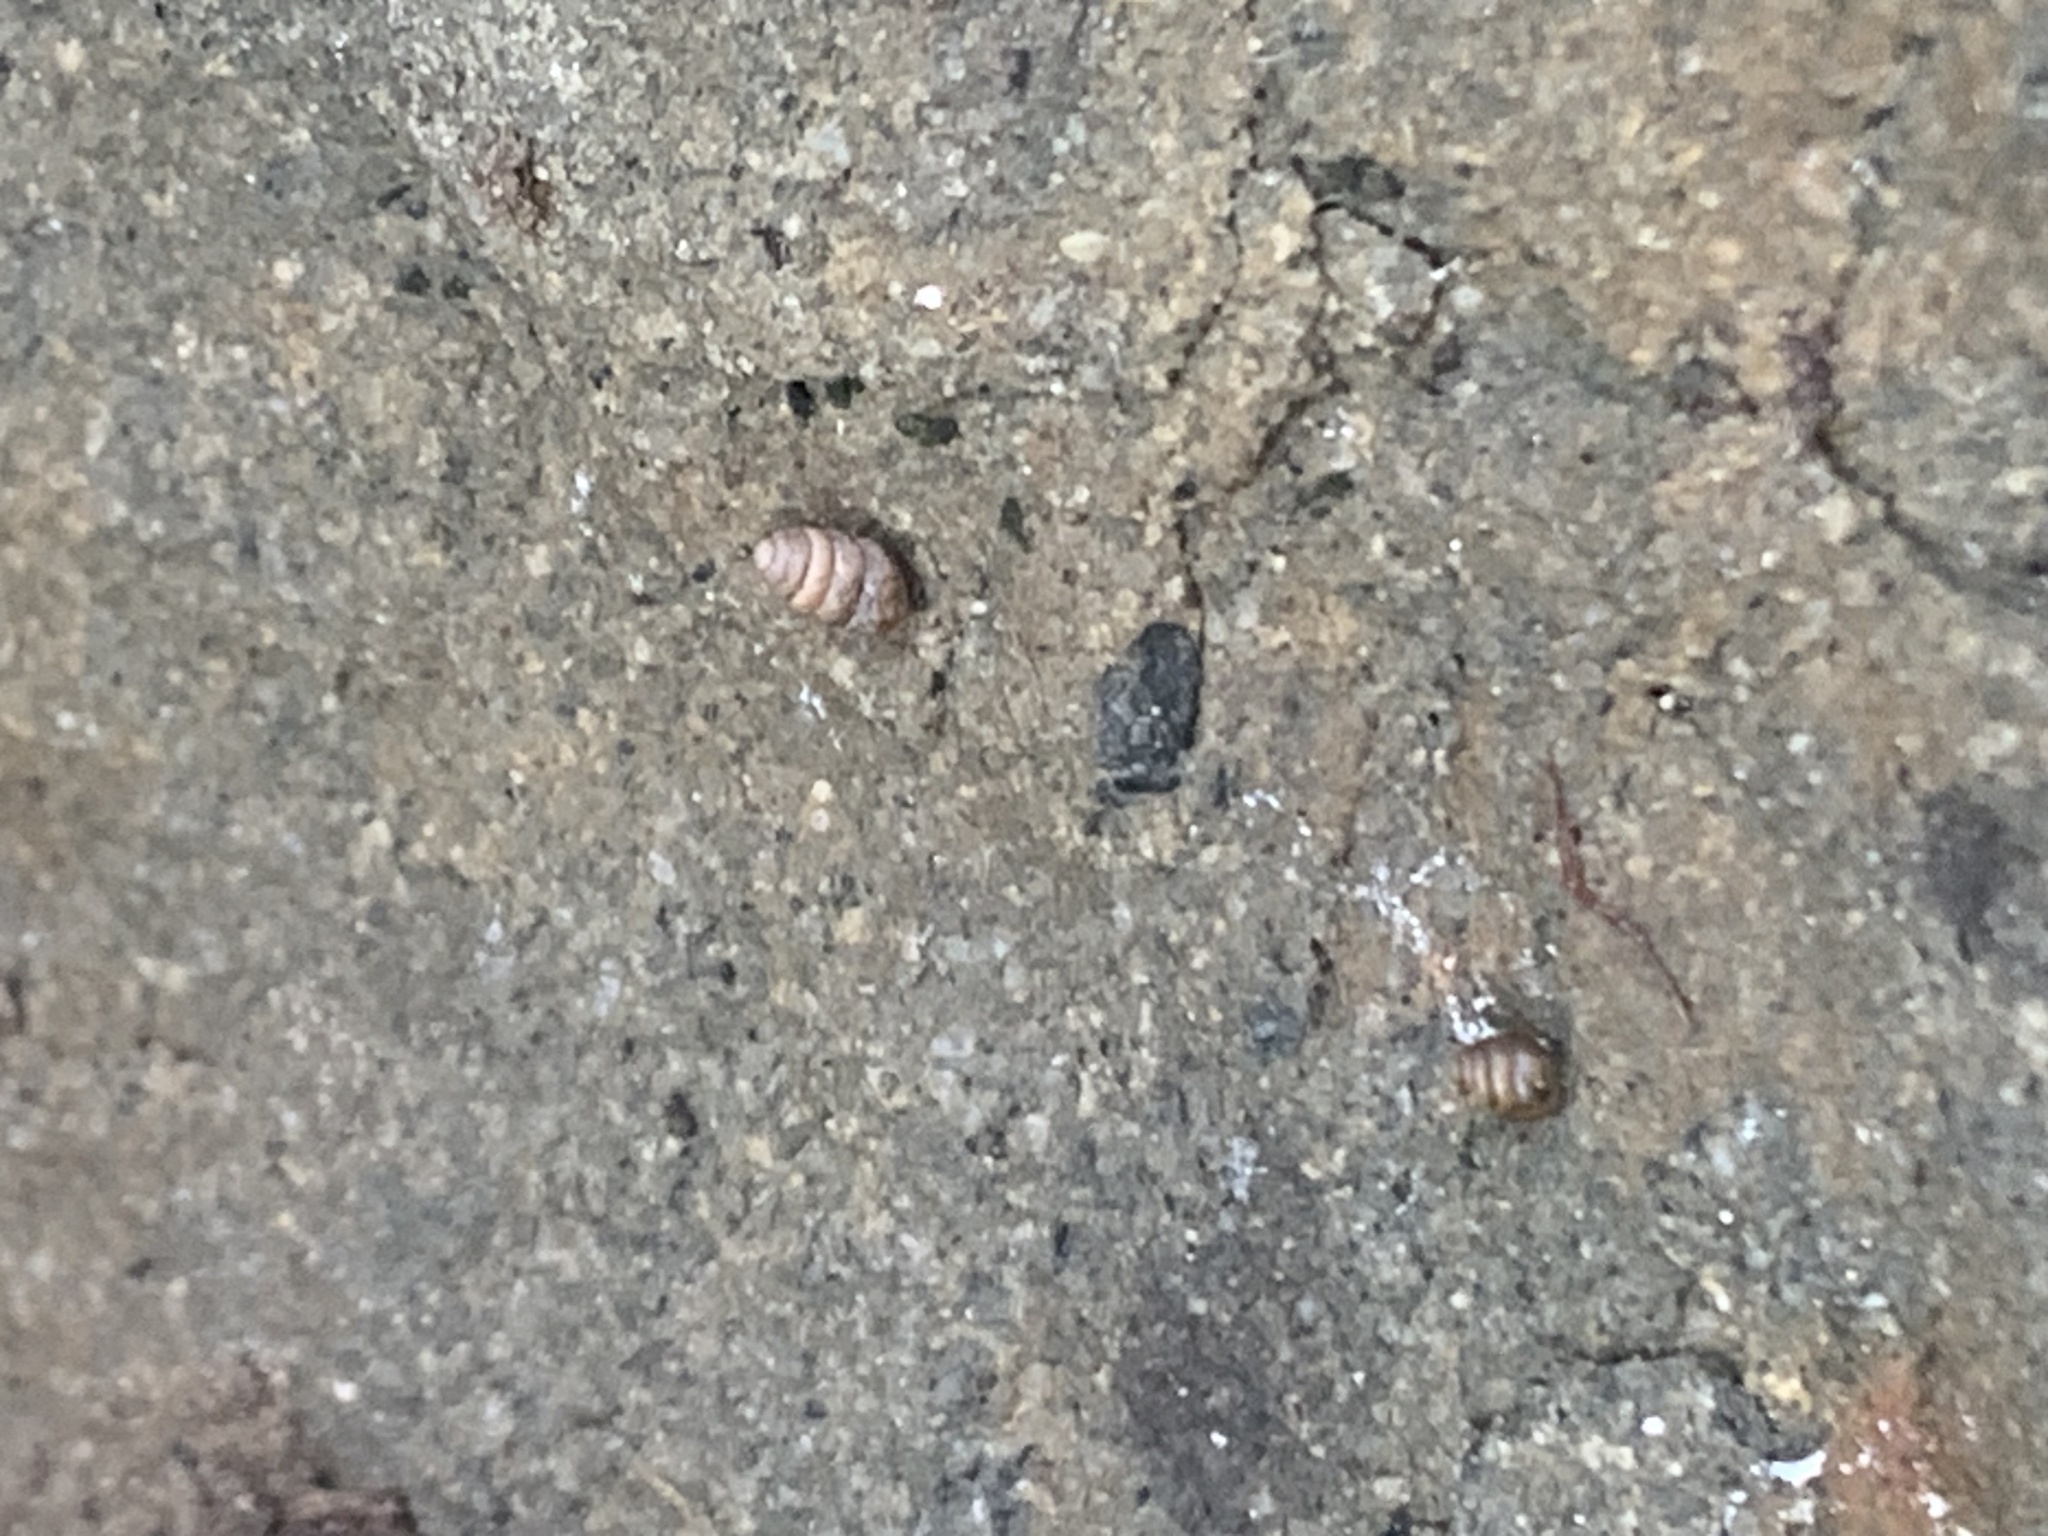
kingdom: Animalia
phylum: Mollusca
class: Gastropoda
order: Stylommatophora
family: Lauriidae
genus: Lauria
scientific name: Lauria cylindracea
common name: Common chrysalis snail
